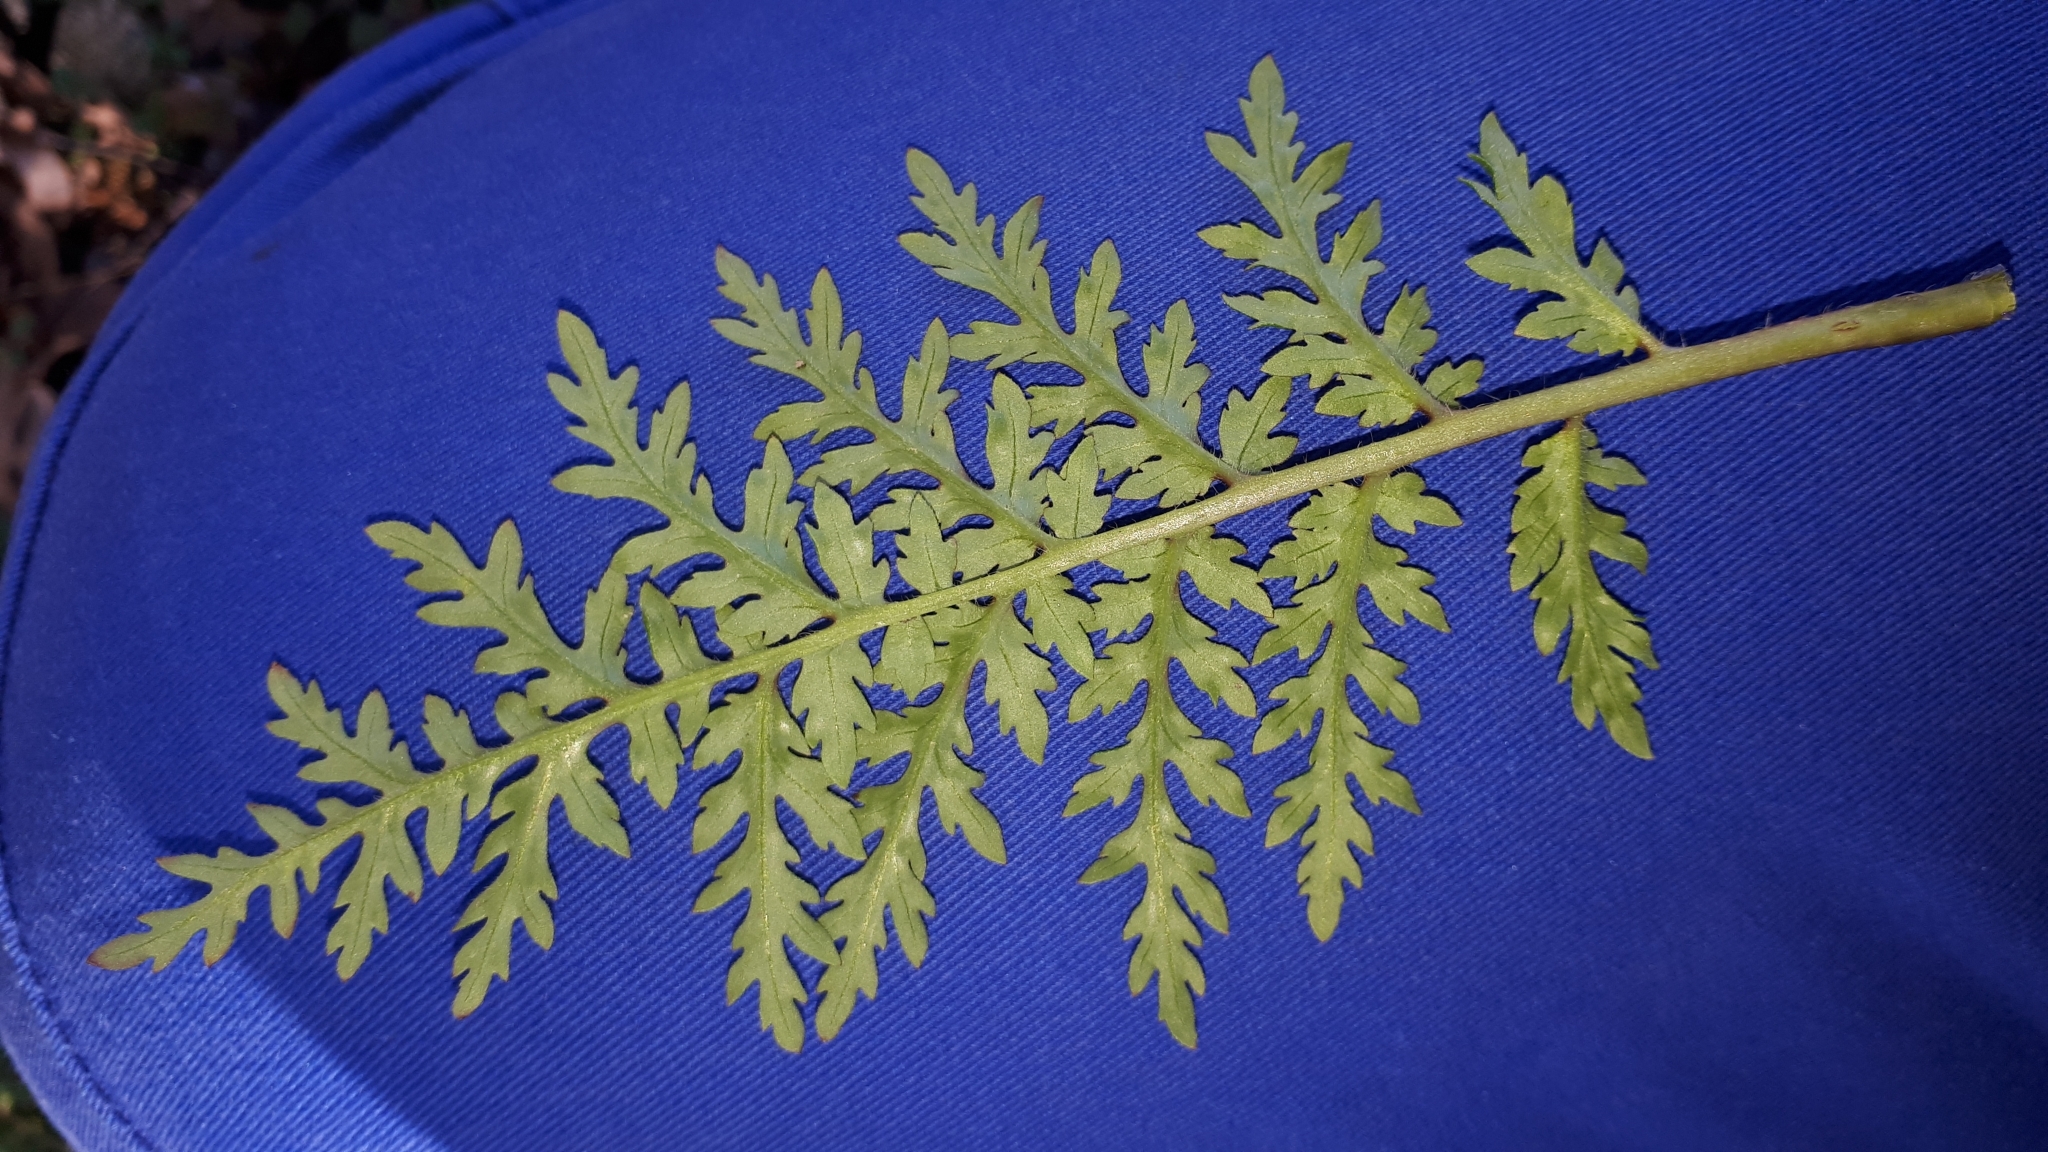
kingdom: Plantae
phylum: Tracheophyta
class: Magnoliopsida
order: Boraginales
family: Hydrophyllaceae
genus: Phacelia
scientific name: Phacelia tanacetifolia
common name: Phacelia
